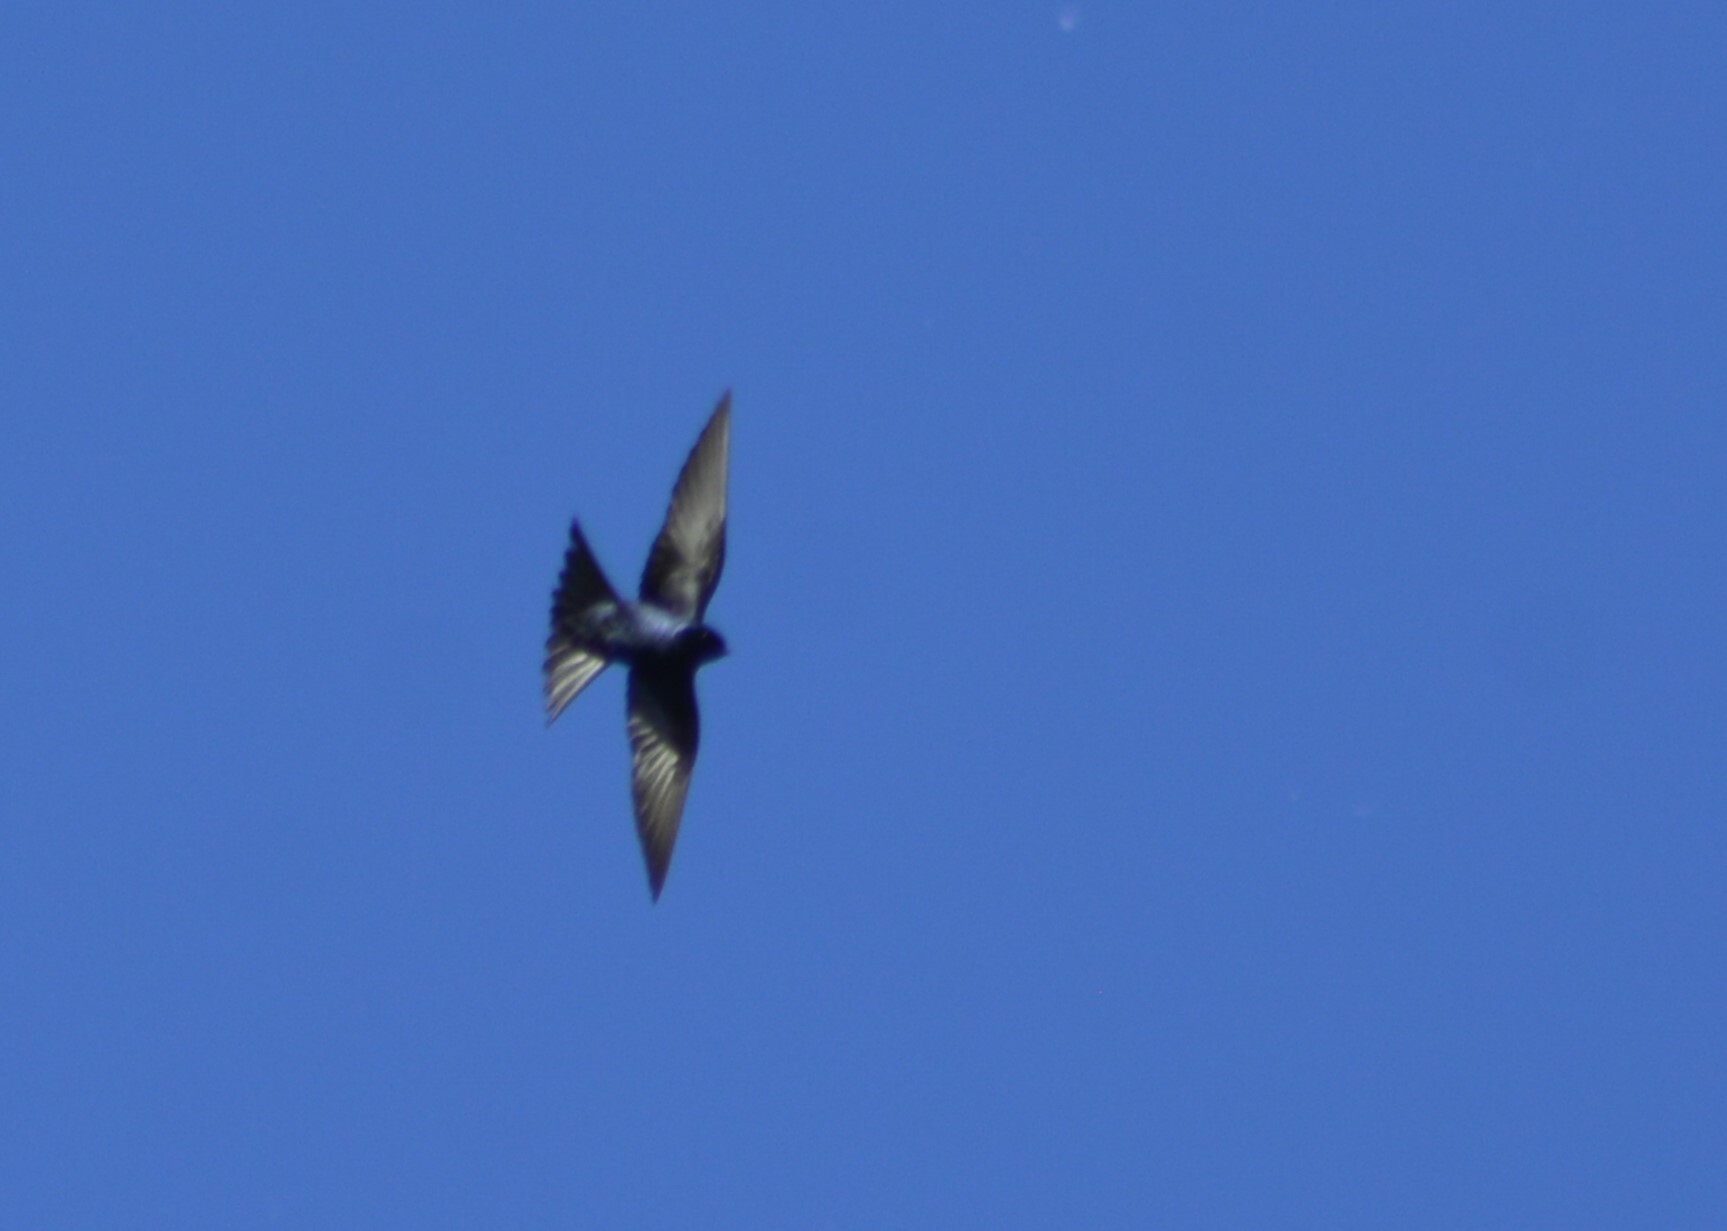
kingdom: Animalia
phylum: Chordata
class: Aves
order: Passeriformes
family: Hirundinidae
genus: Progne
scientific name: Progne elegans
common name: Southern martin
